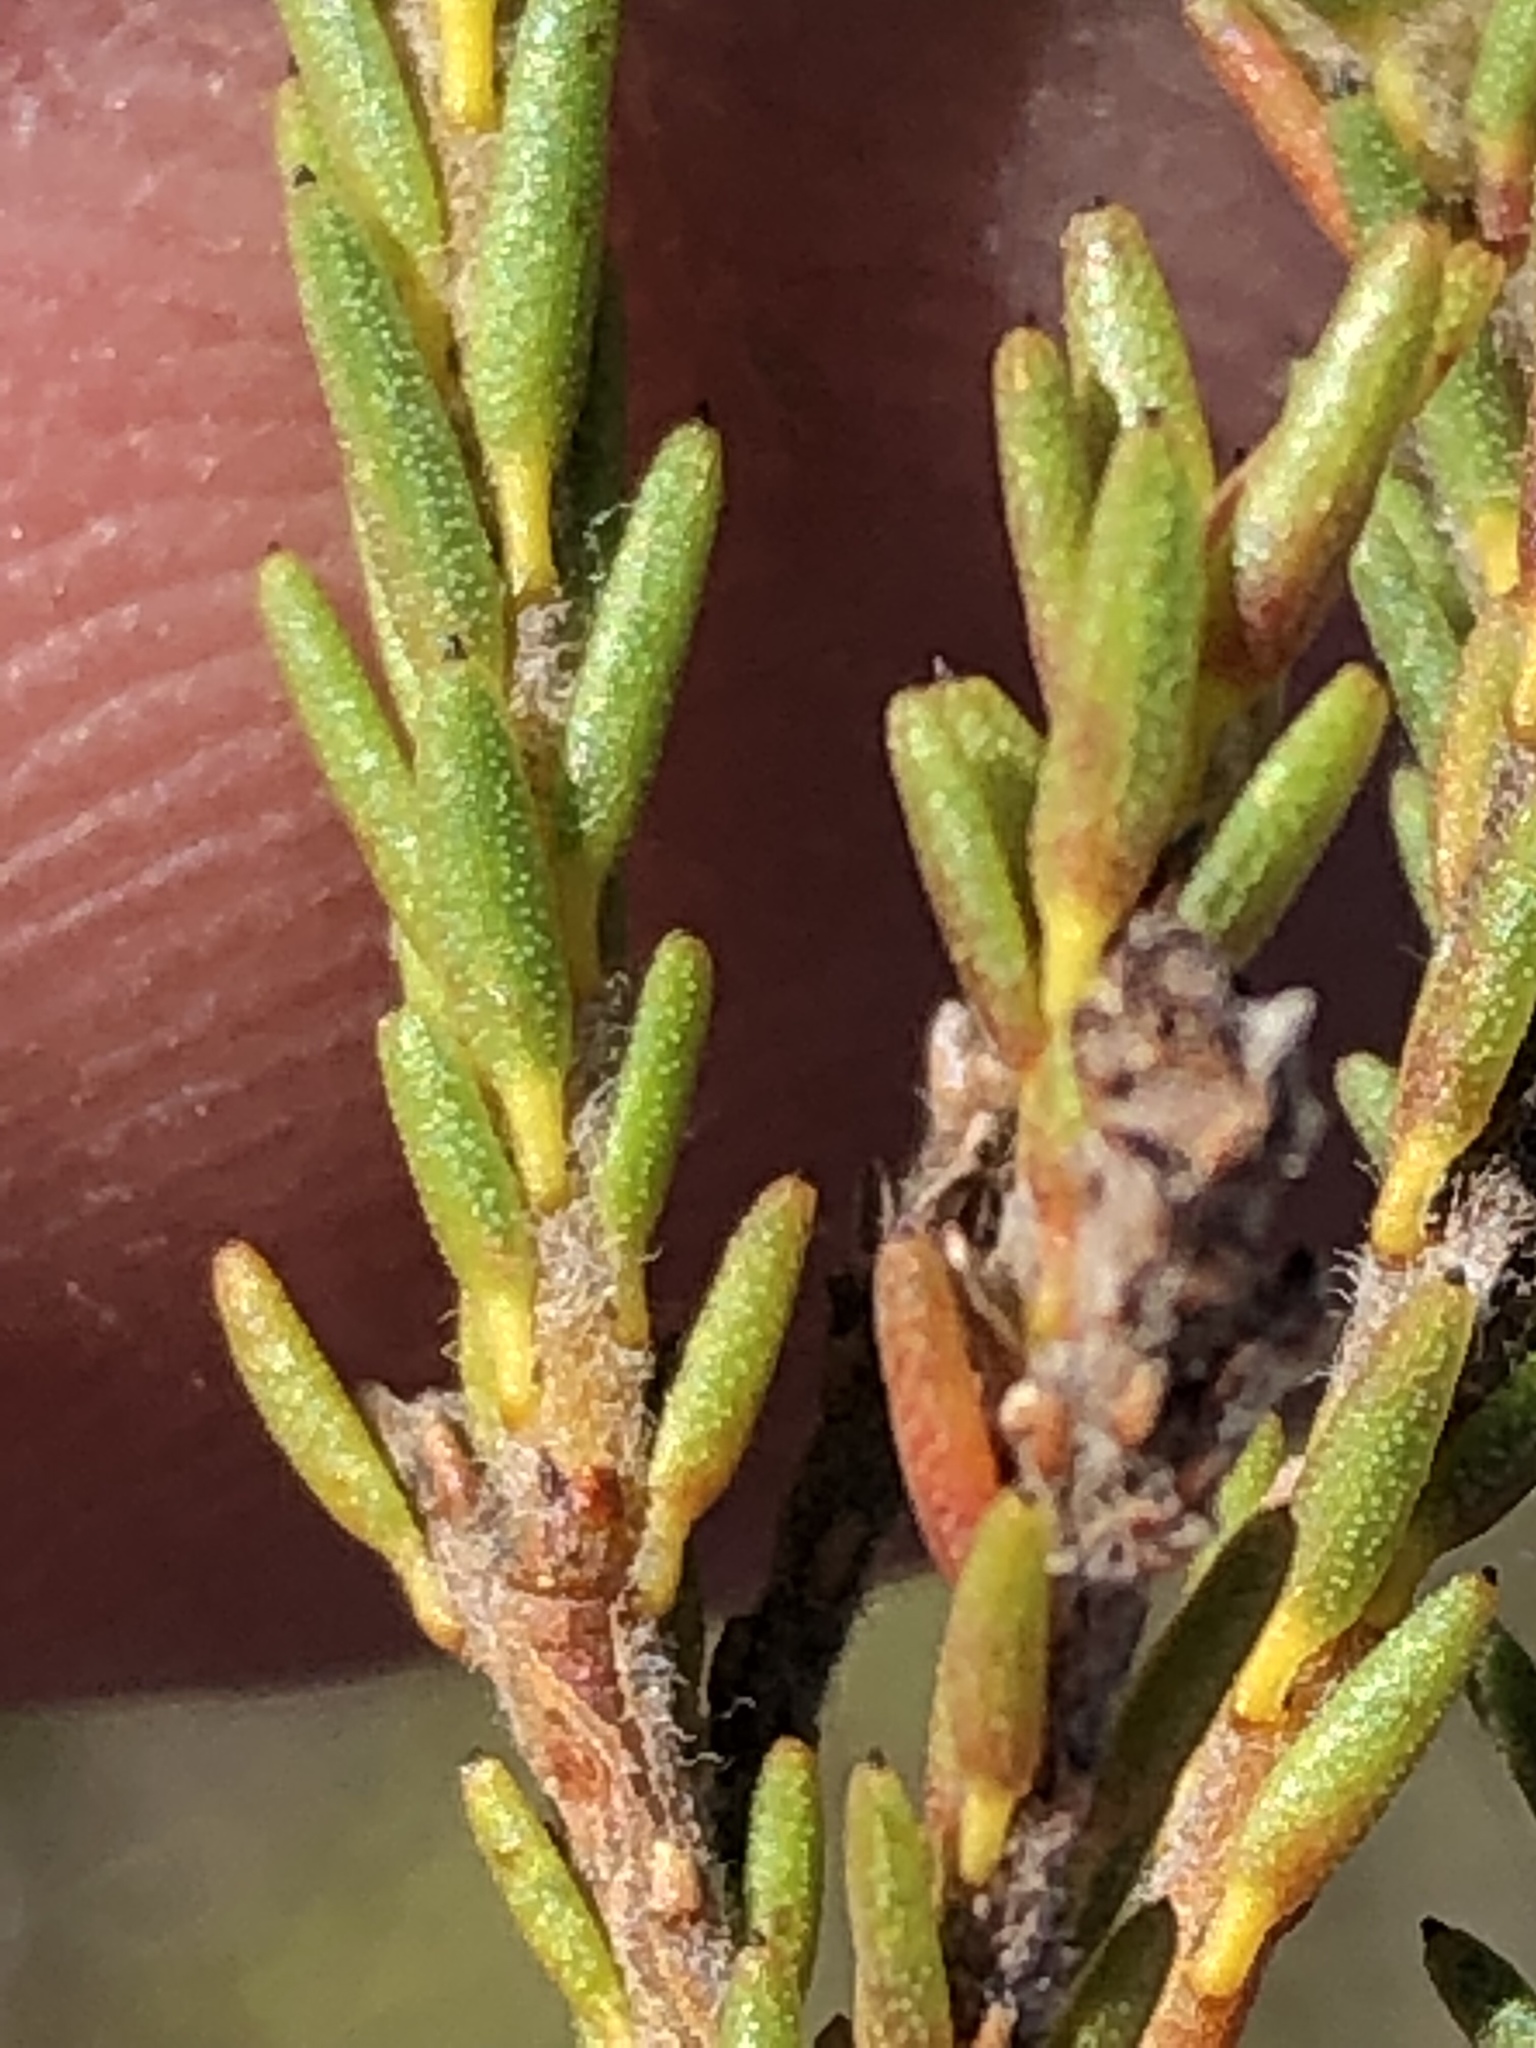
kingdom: Plantae
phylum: Tracheophyta
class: Magnoliopsida
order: Bruniales
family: Bruniaceae
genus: Staavia
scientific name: Staavia radiata
